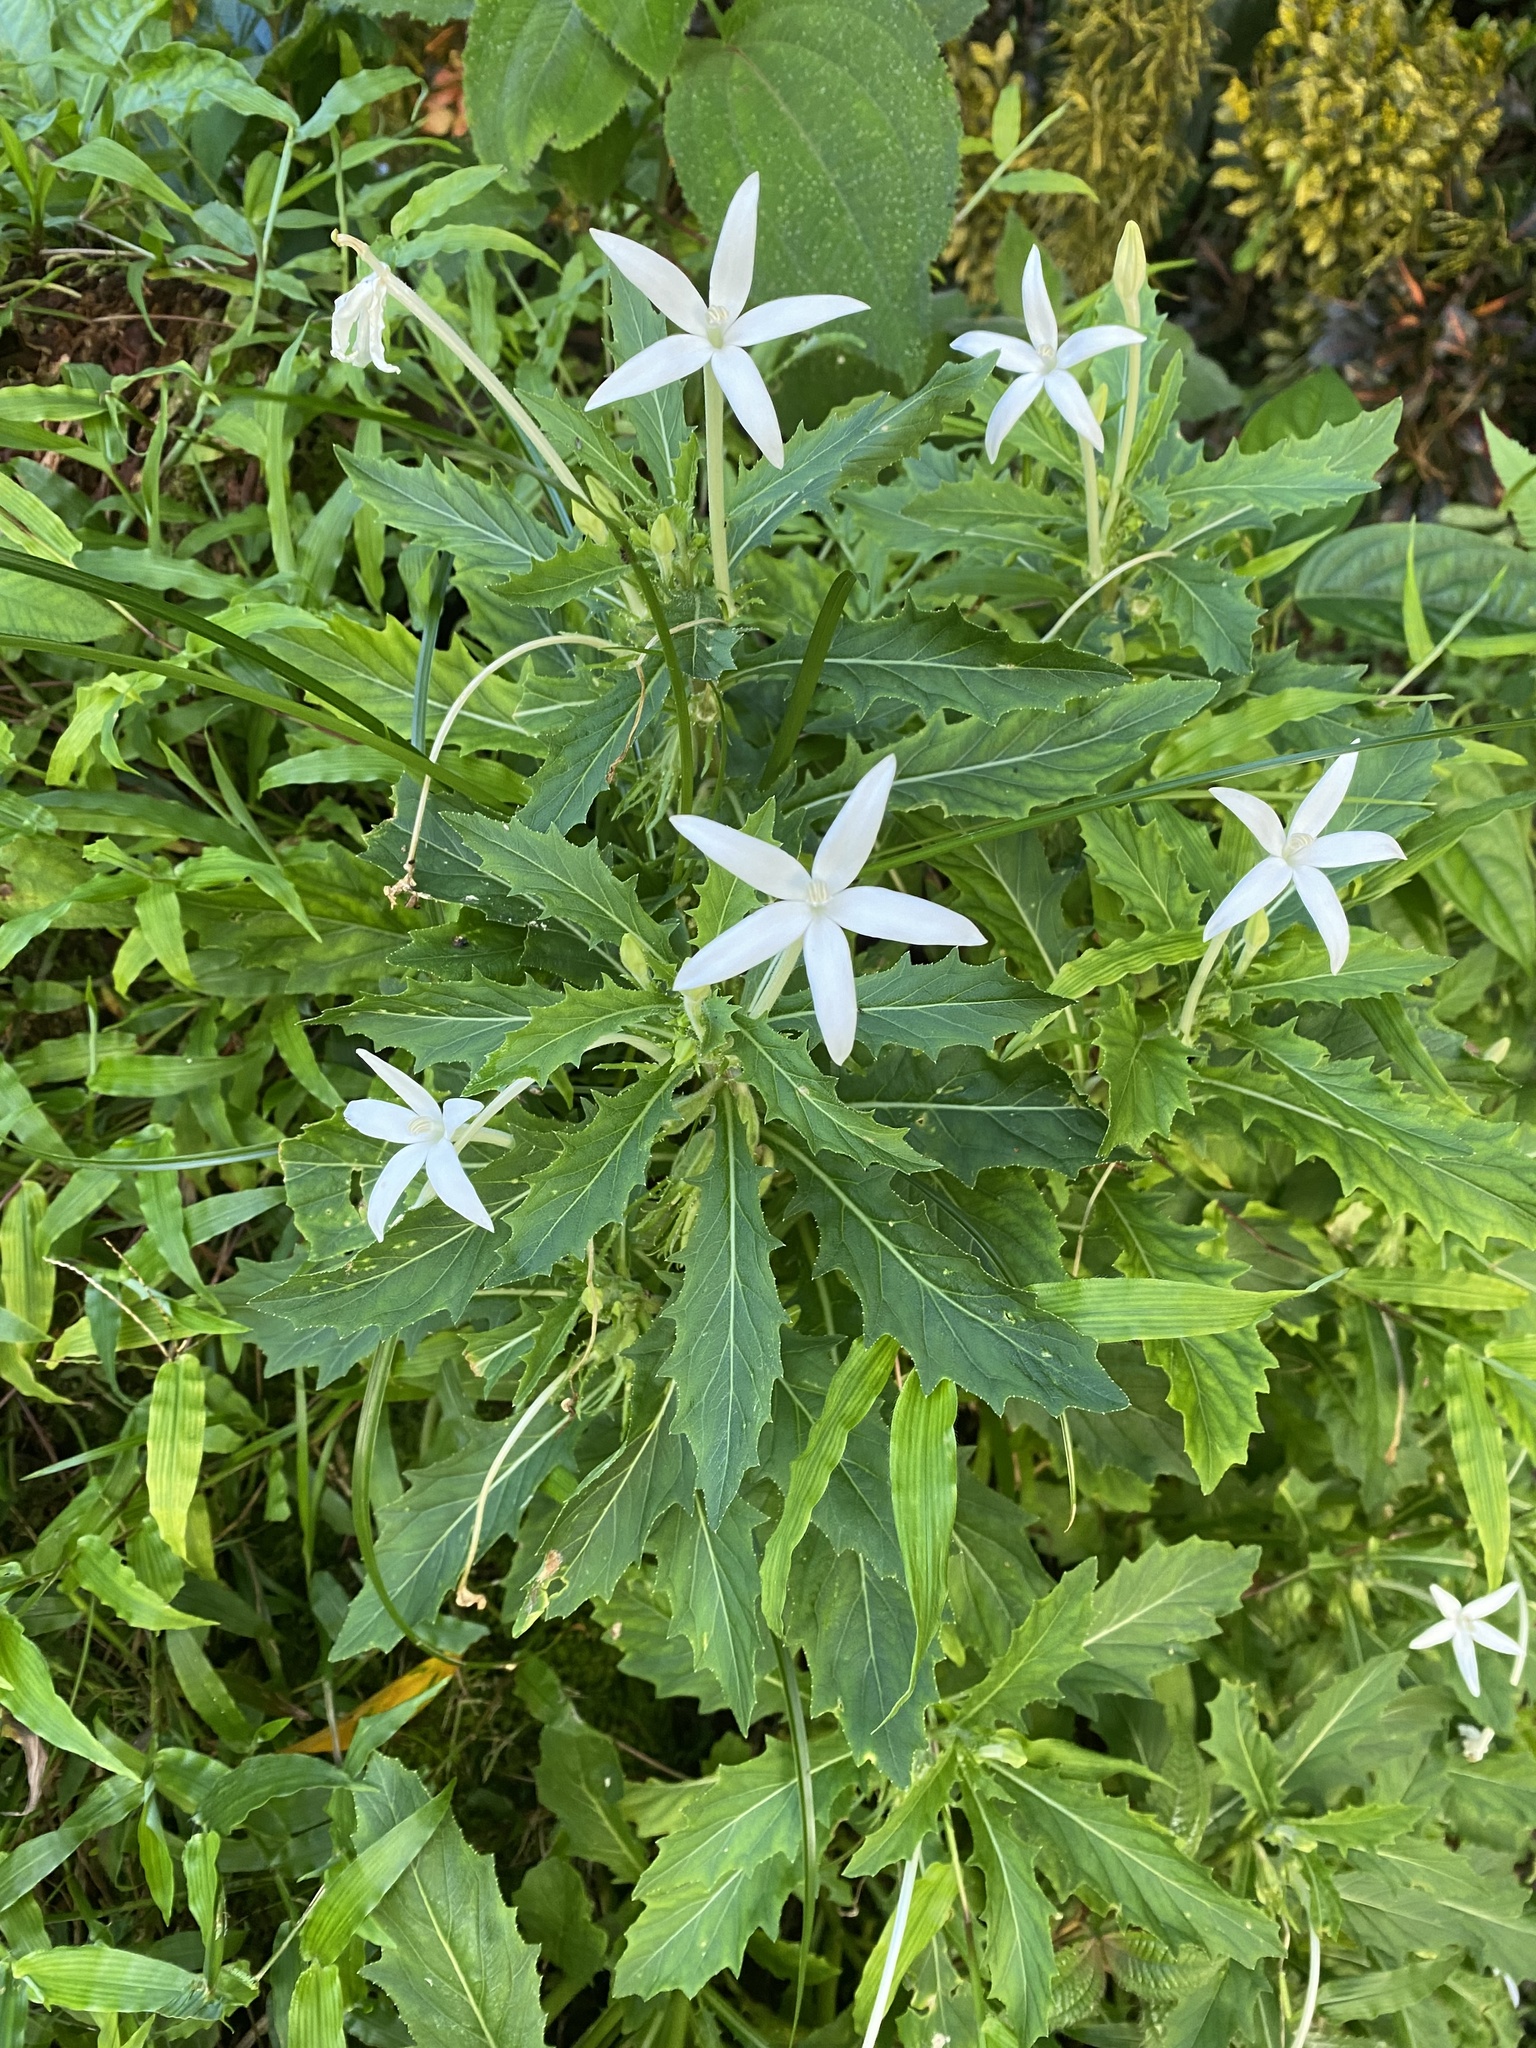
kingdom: Plantae
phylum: Tracheophyta
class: Magnoliopsida
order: Asterales
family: Campanulaceae
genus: Hippobroma
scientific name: Hippobroma longiflora
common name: Madamfate
